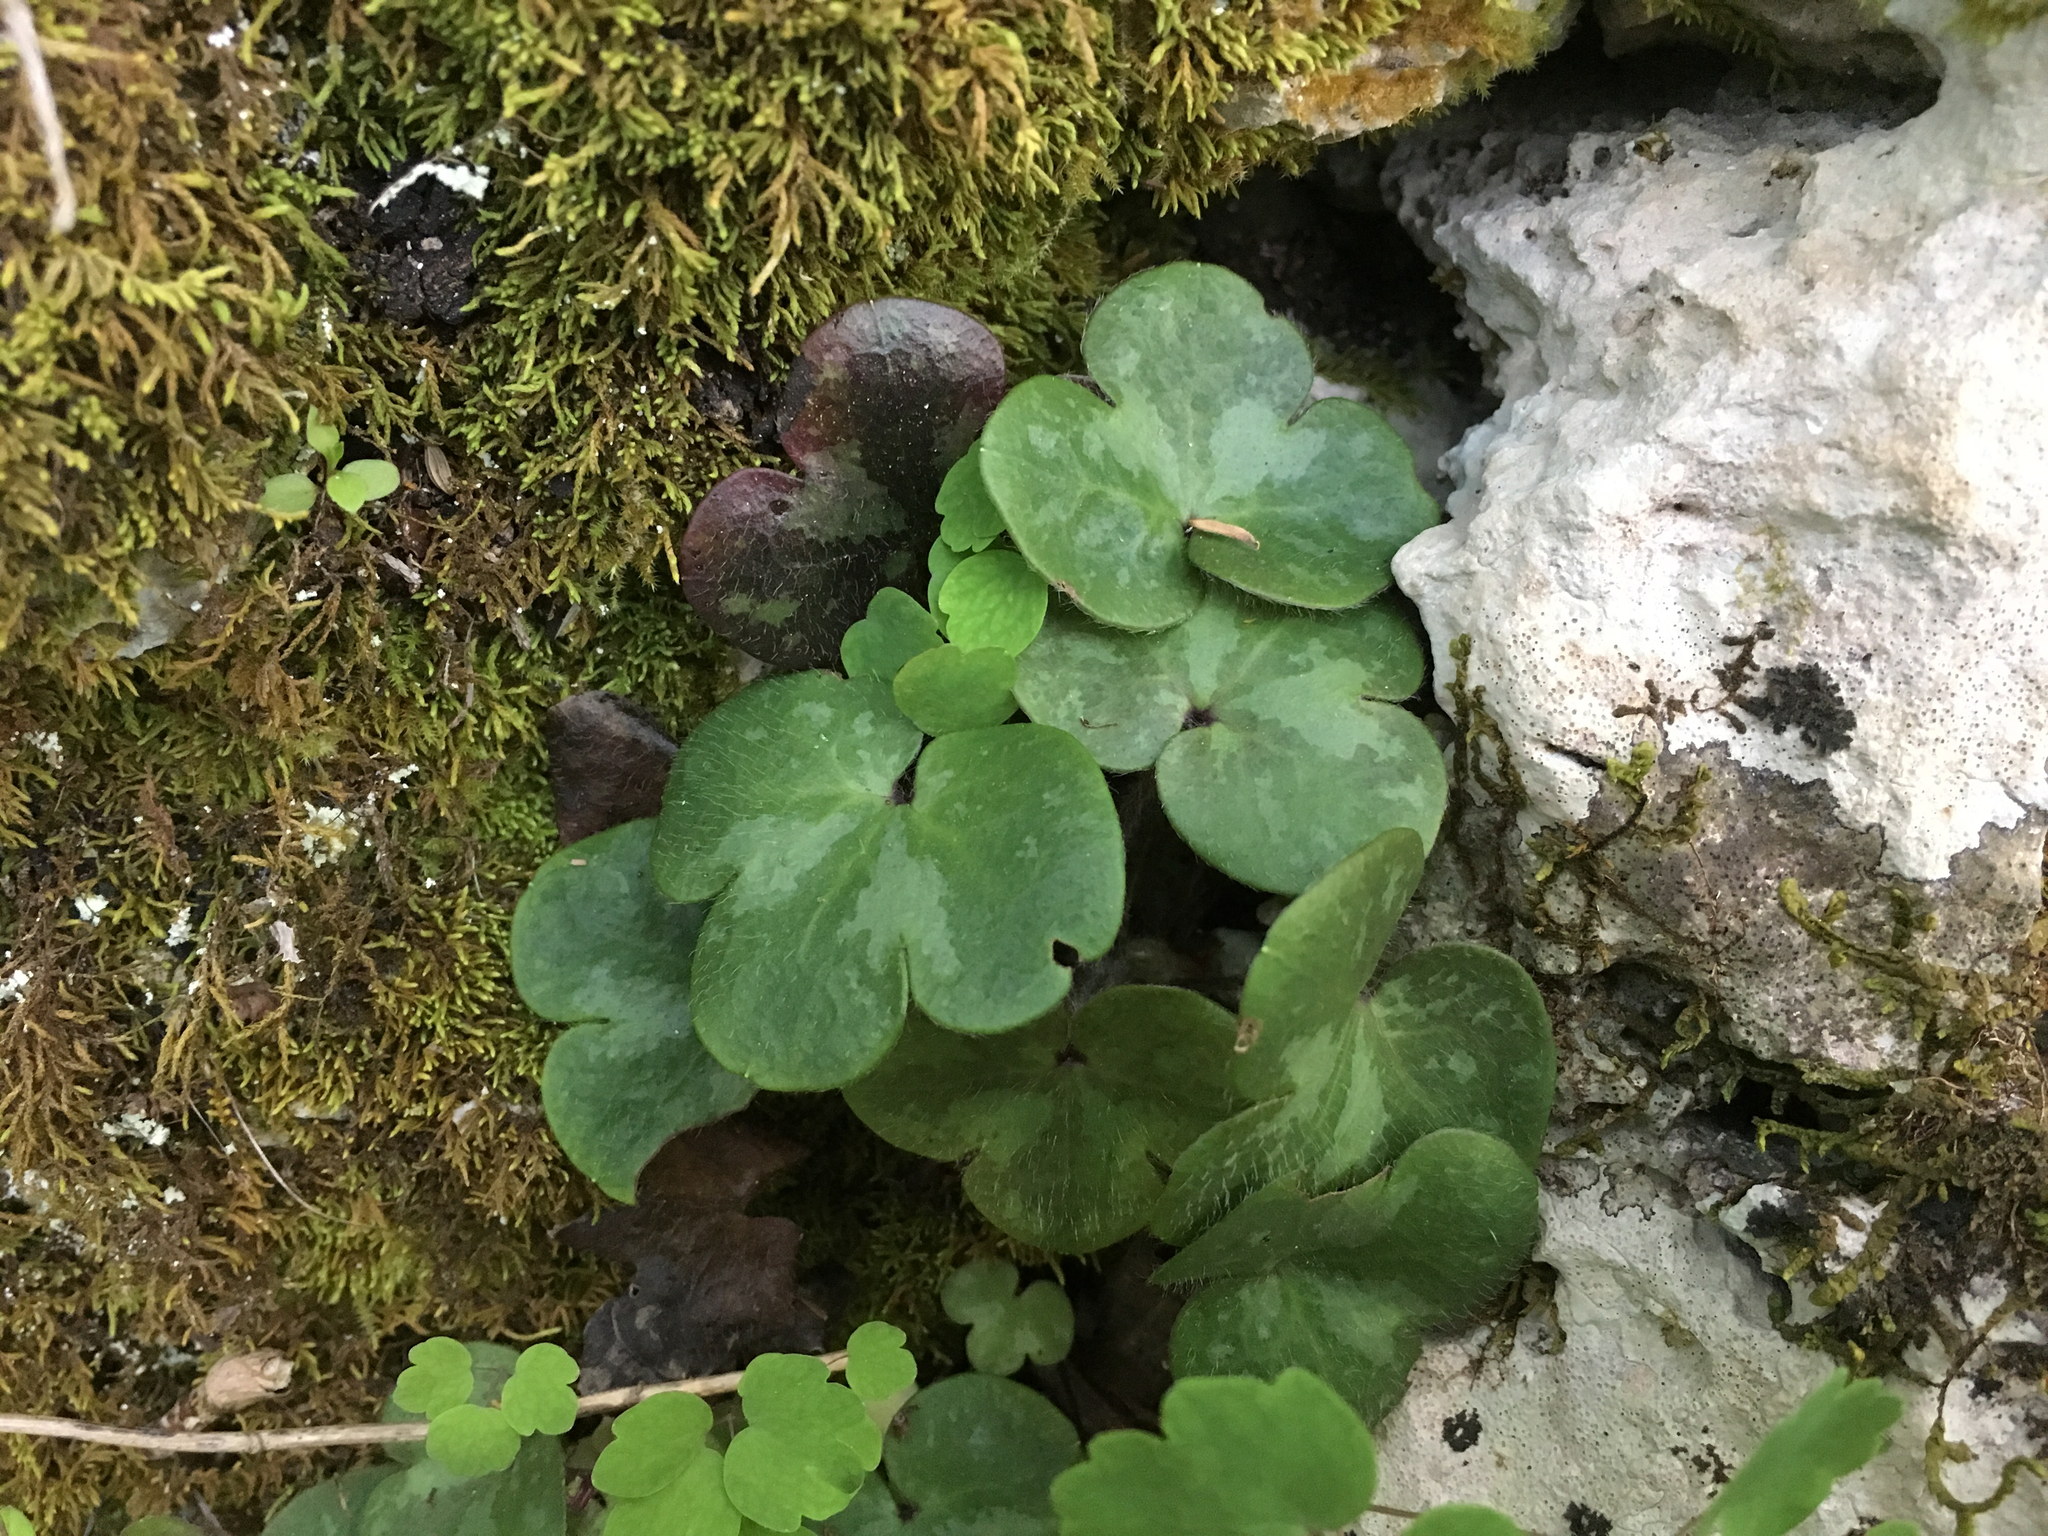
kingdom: Plantae
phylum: Tracheophyta
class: Magnoliopsida
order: Ranunculales
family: Ranunculaceae
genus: Hepatica
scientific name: Hepatica americana
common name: American hepatica
